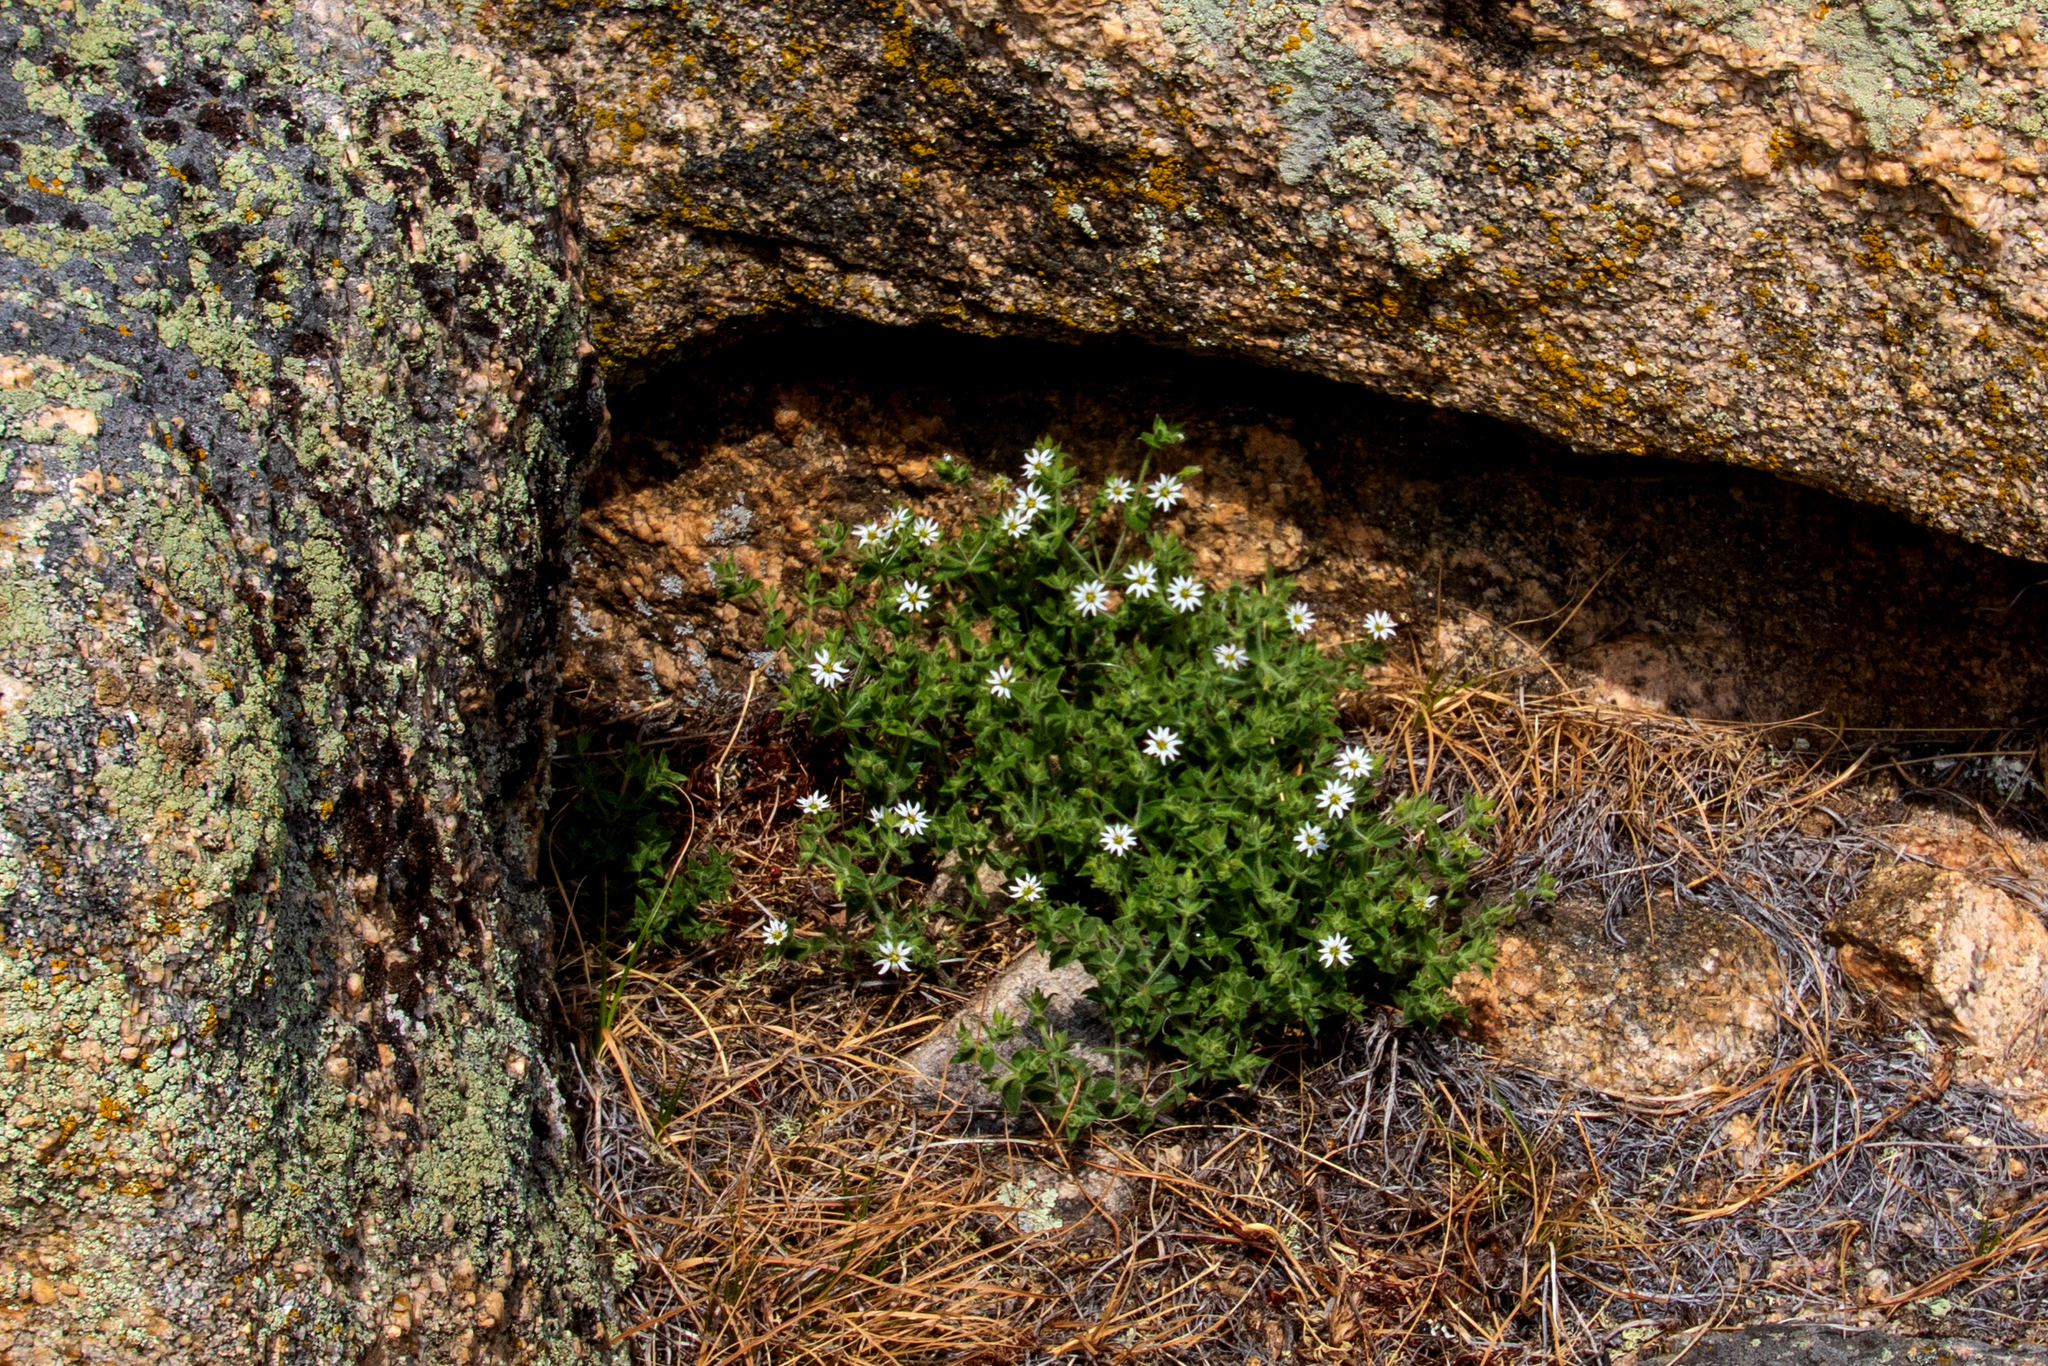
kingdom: Plantae
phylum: Tracheophyta
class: Magnoliopsida
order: Caryophyllales
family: Caryophyllaceae
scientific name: Caryophyllaceae
